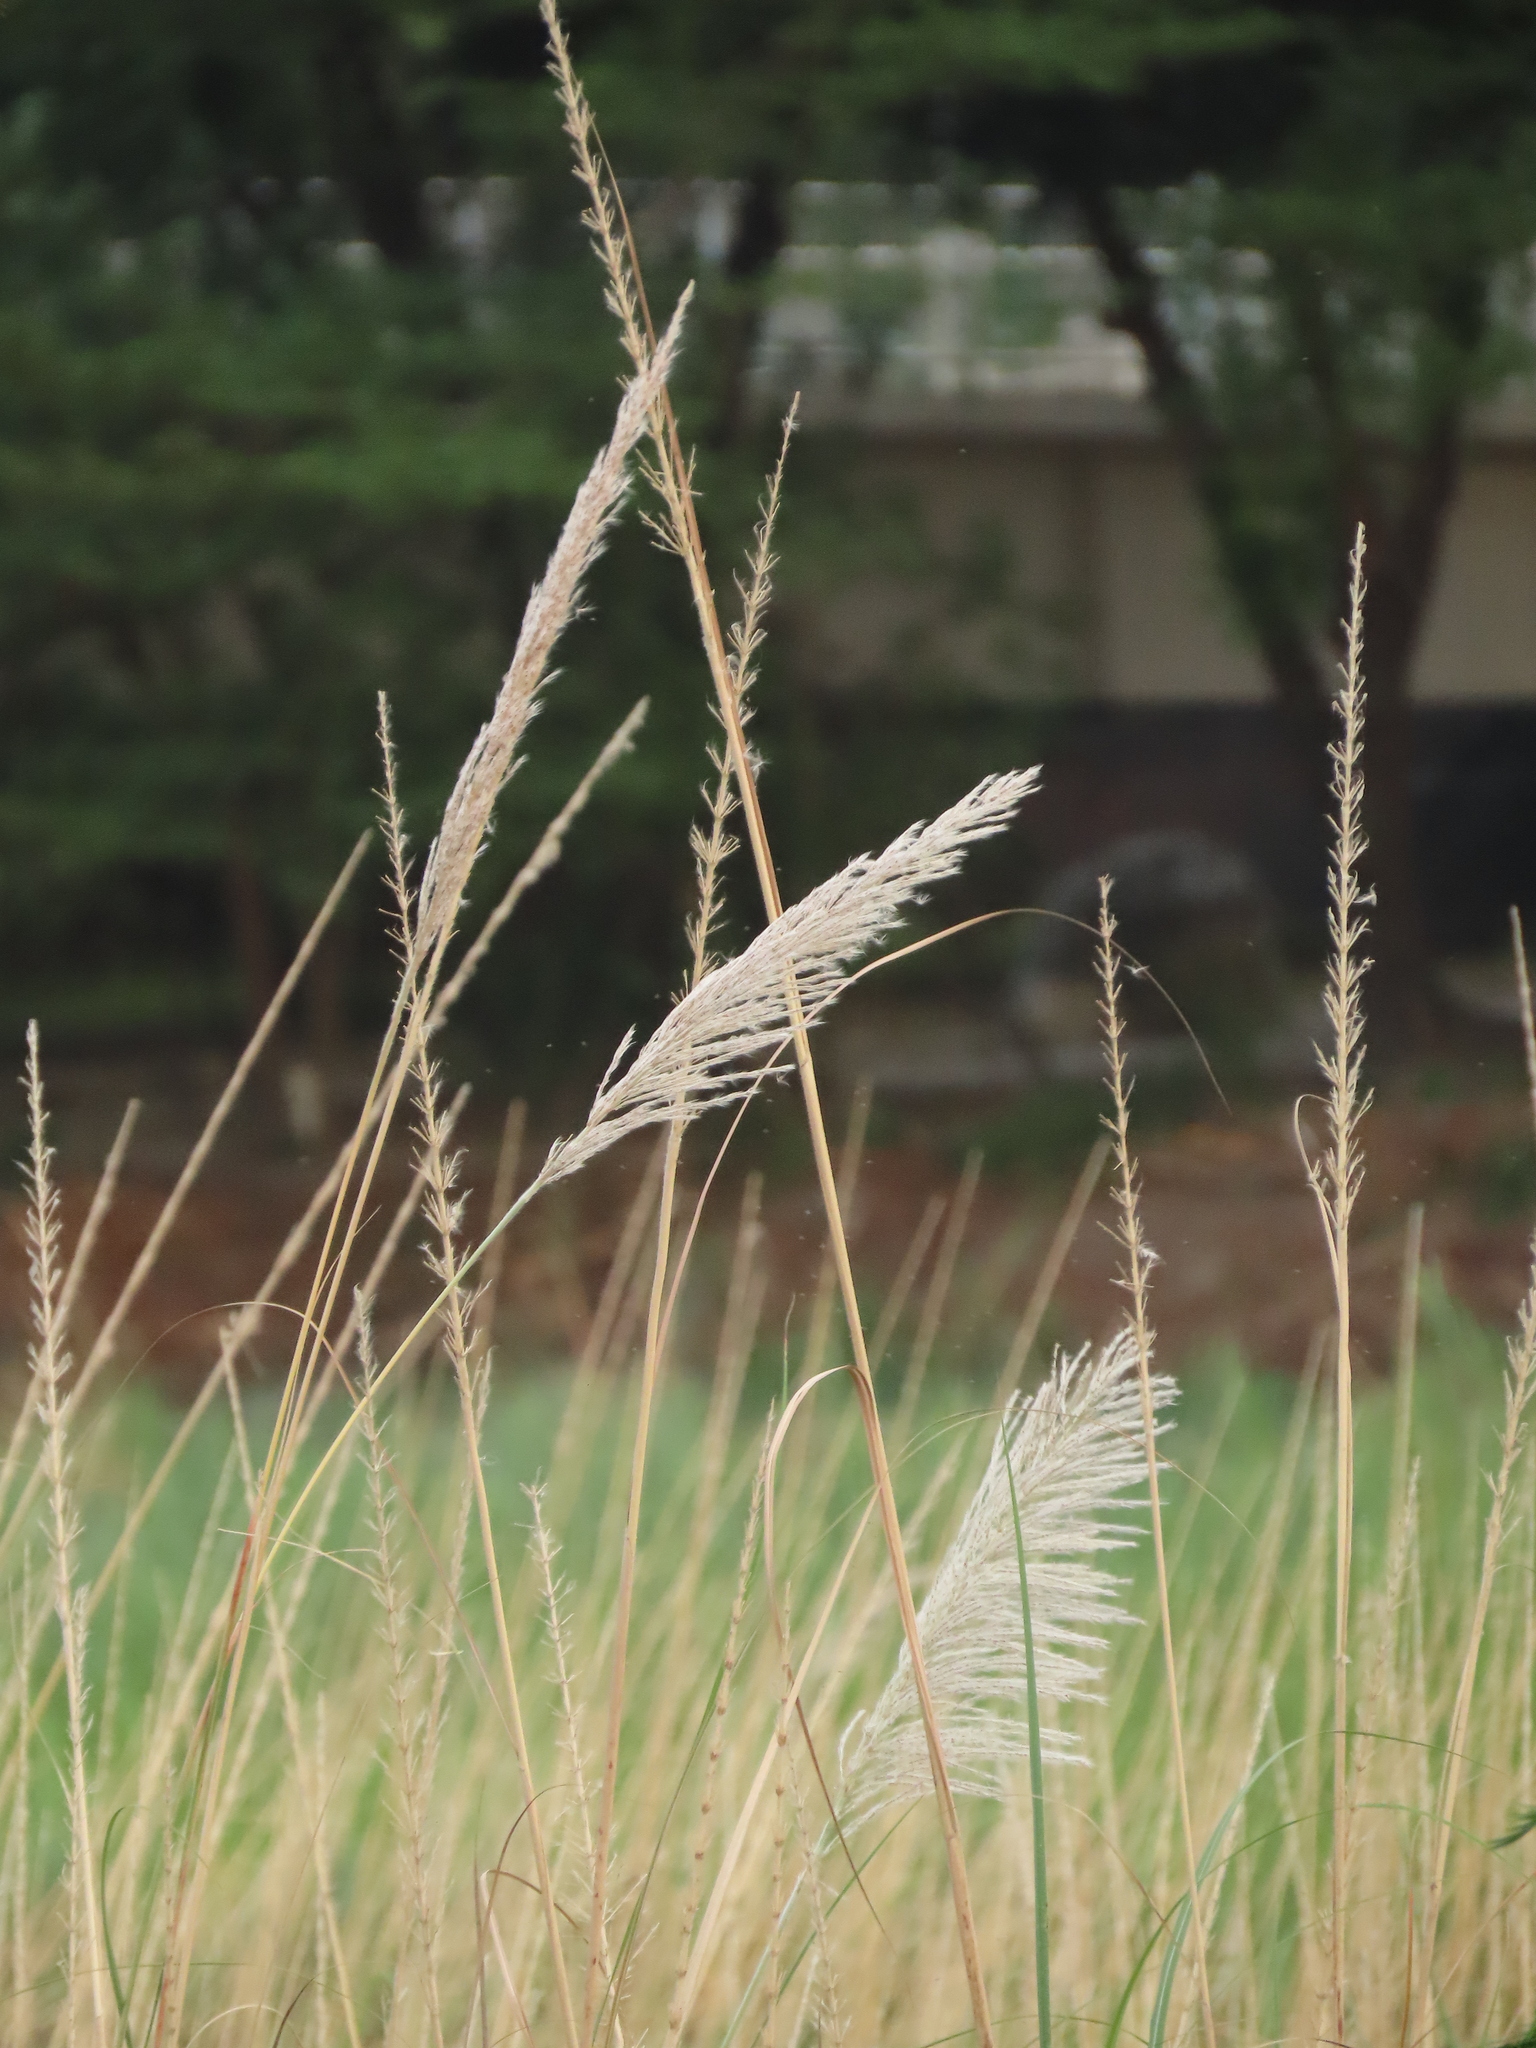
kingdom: Plantae
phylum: Tracheophyta
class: Liliopsida
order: Poales
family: Poaceae
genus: Saccharum
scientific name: Saccharum spontaneum
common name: Wild sugarcane
